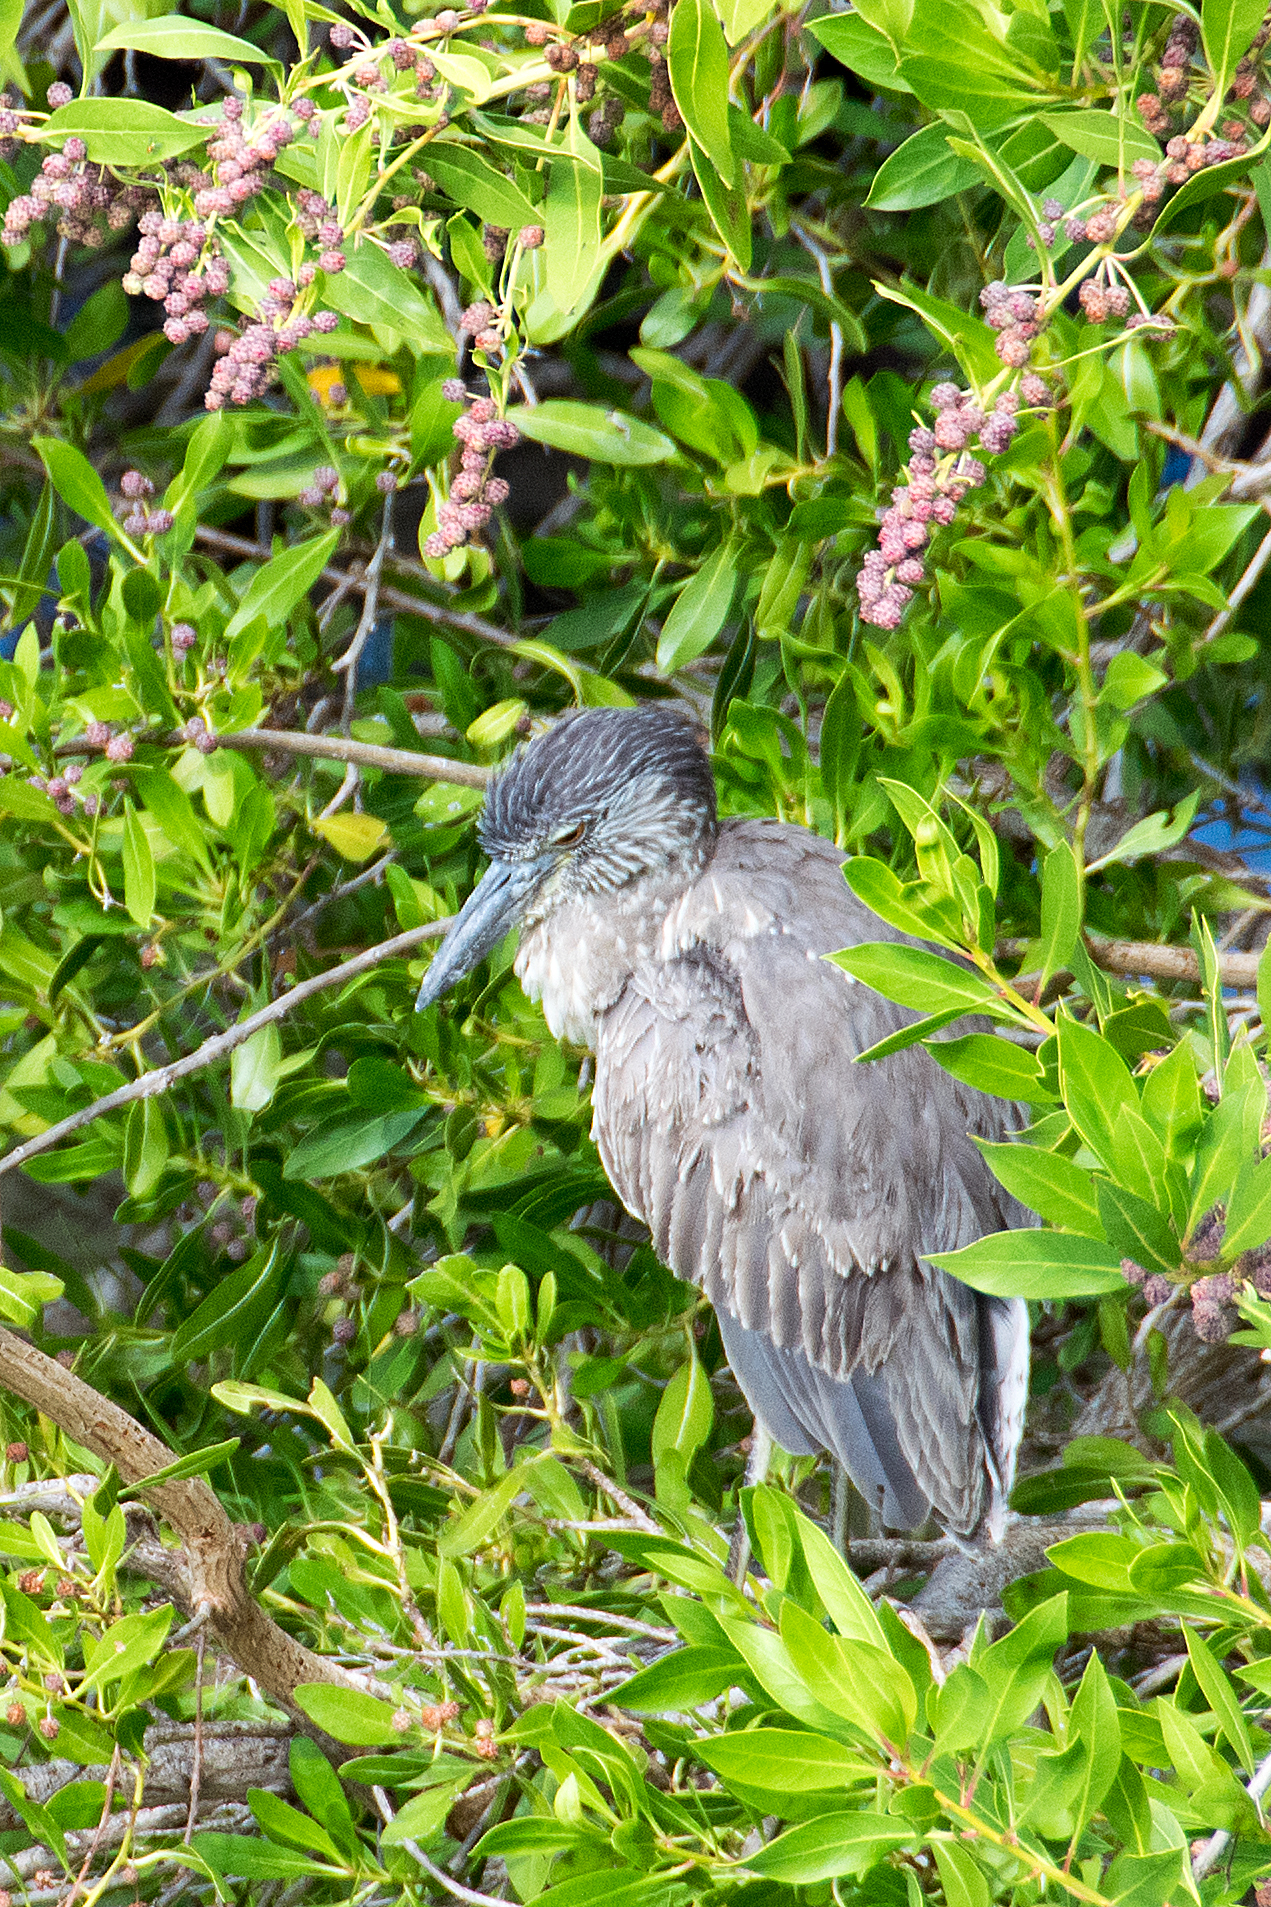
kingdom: Animalia
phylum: Chordata
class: Aves
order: Pelecaniformes
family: Ardeidae
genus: Nyctanassa
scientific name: Nyctanassa violacea
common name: Yellow-crowned night heron
